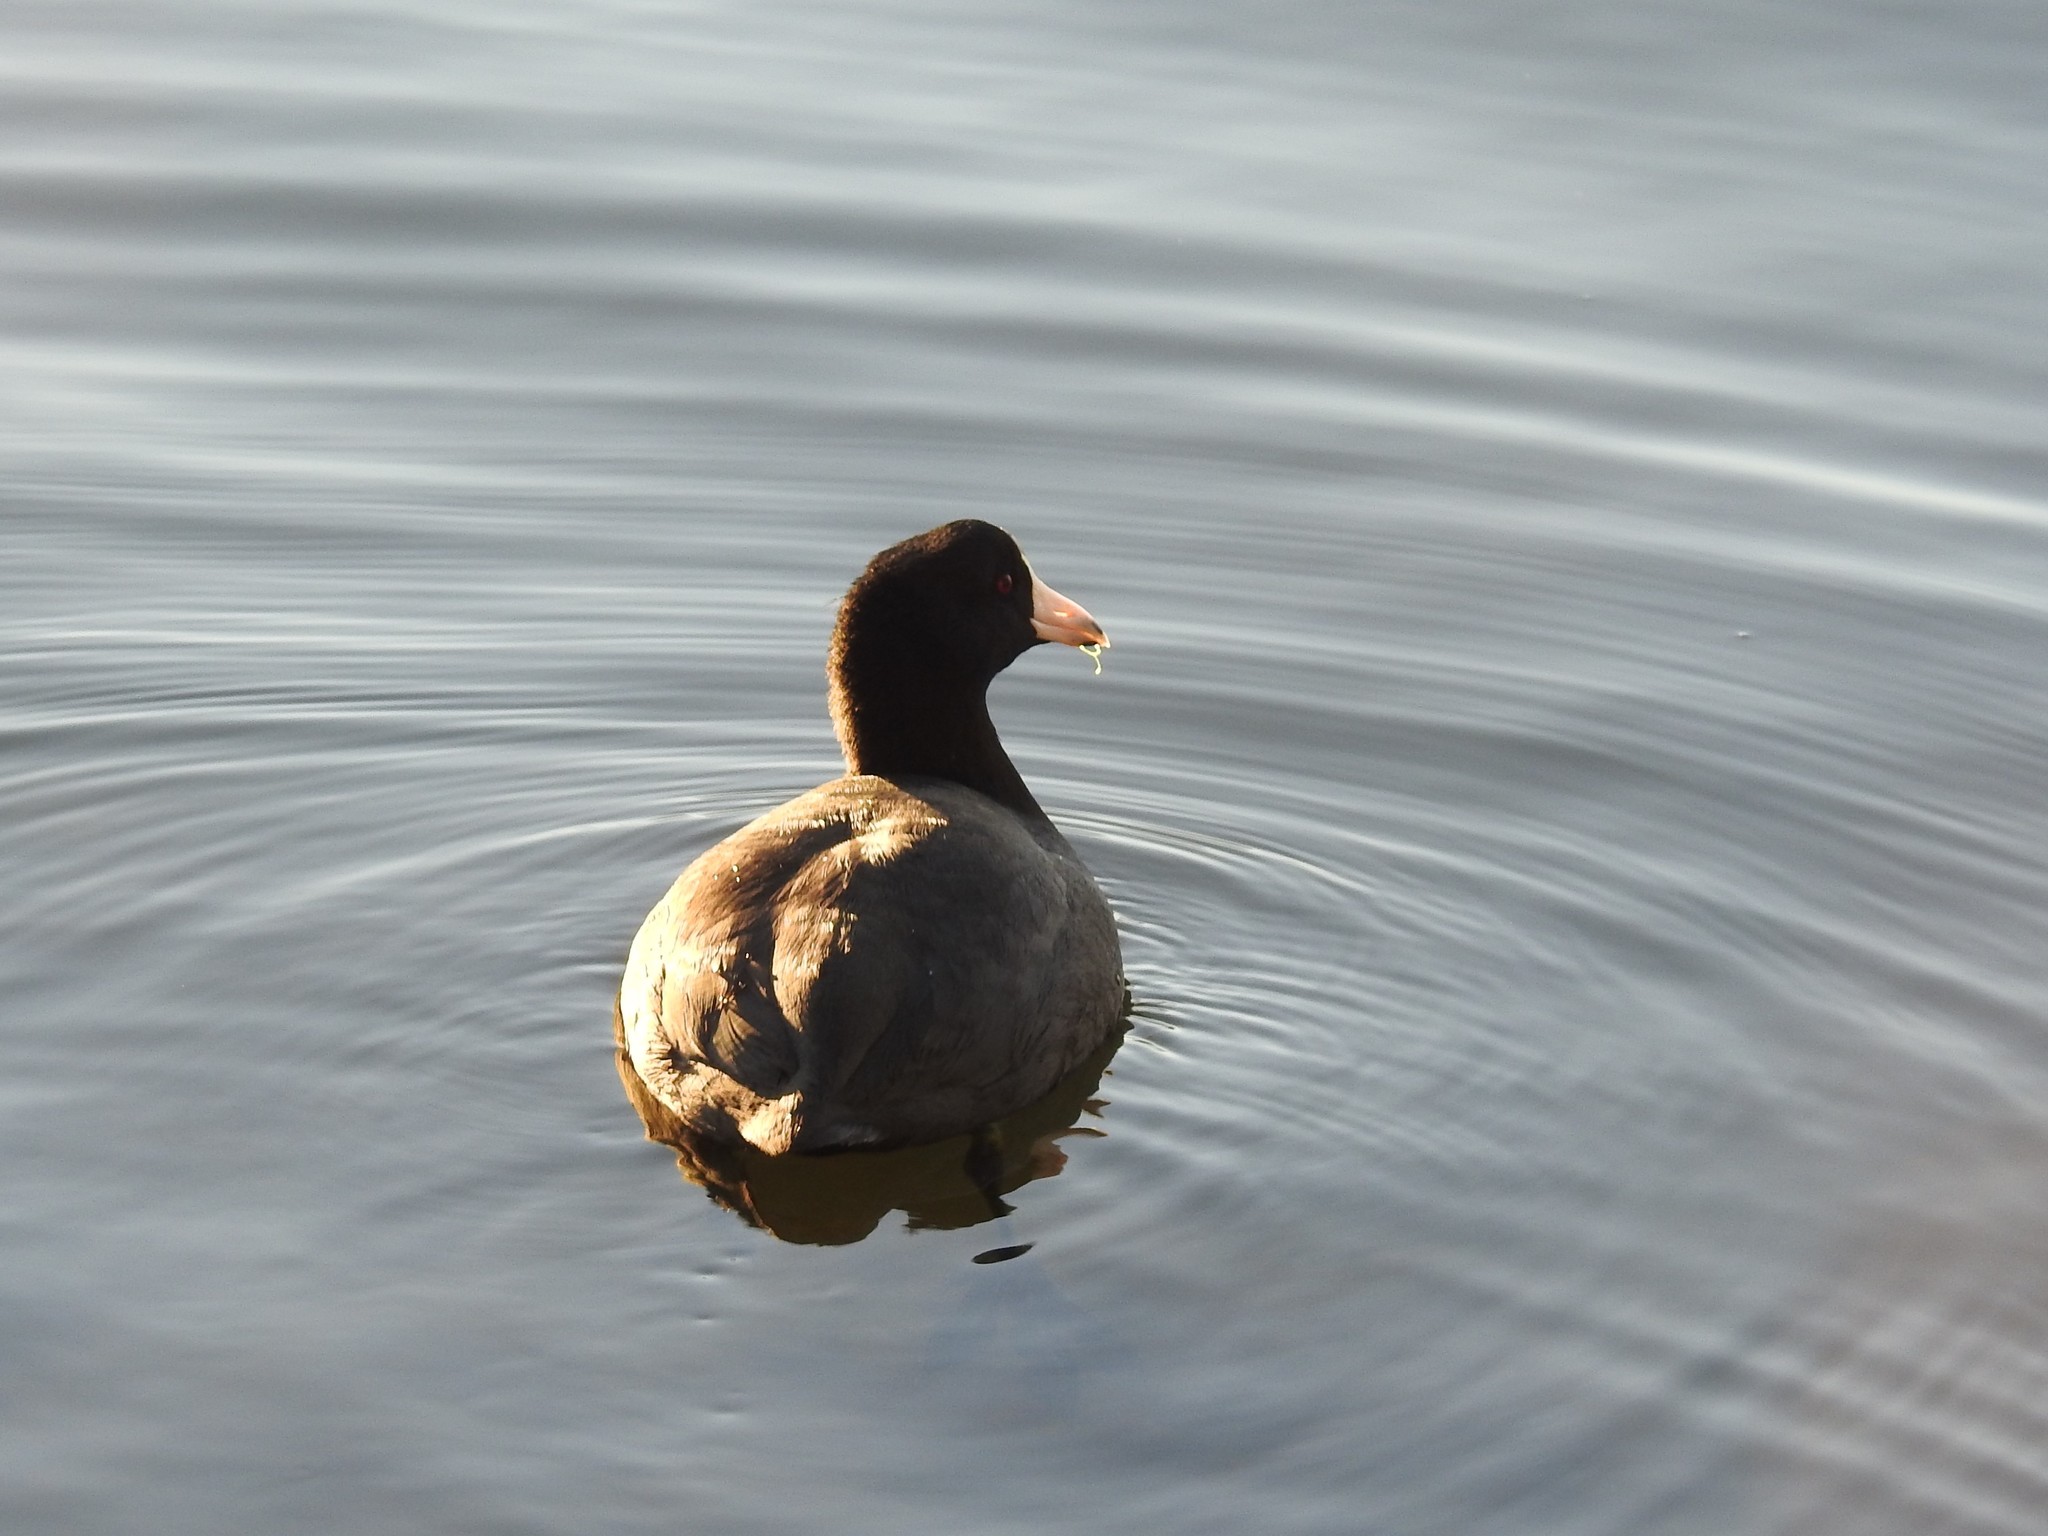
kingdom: Animalia
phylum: Chordata
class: Aves
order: Gruiformes
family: Rallidae
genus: Fulica
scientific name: Fulica americana
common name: American coot
